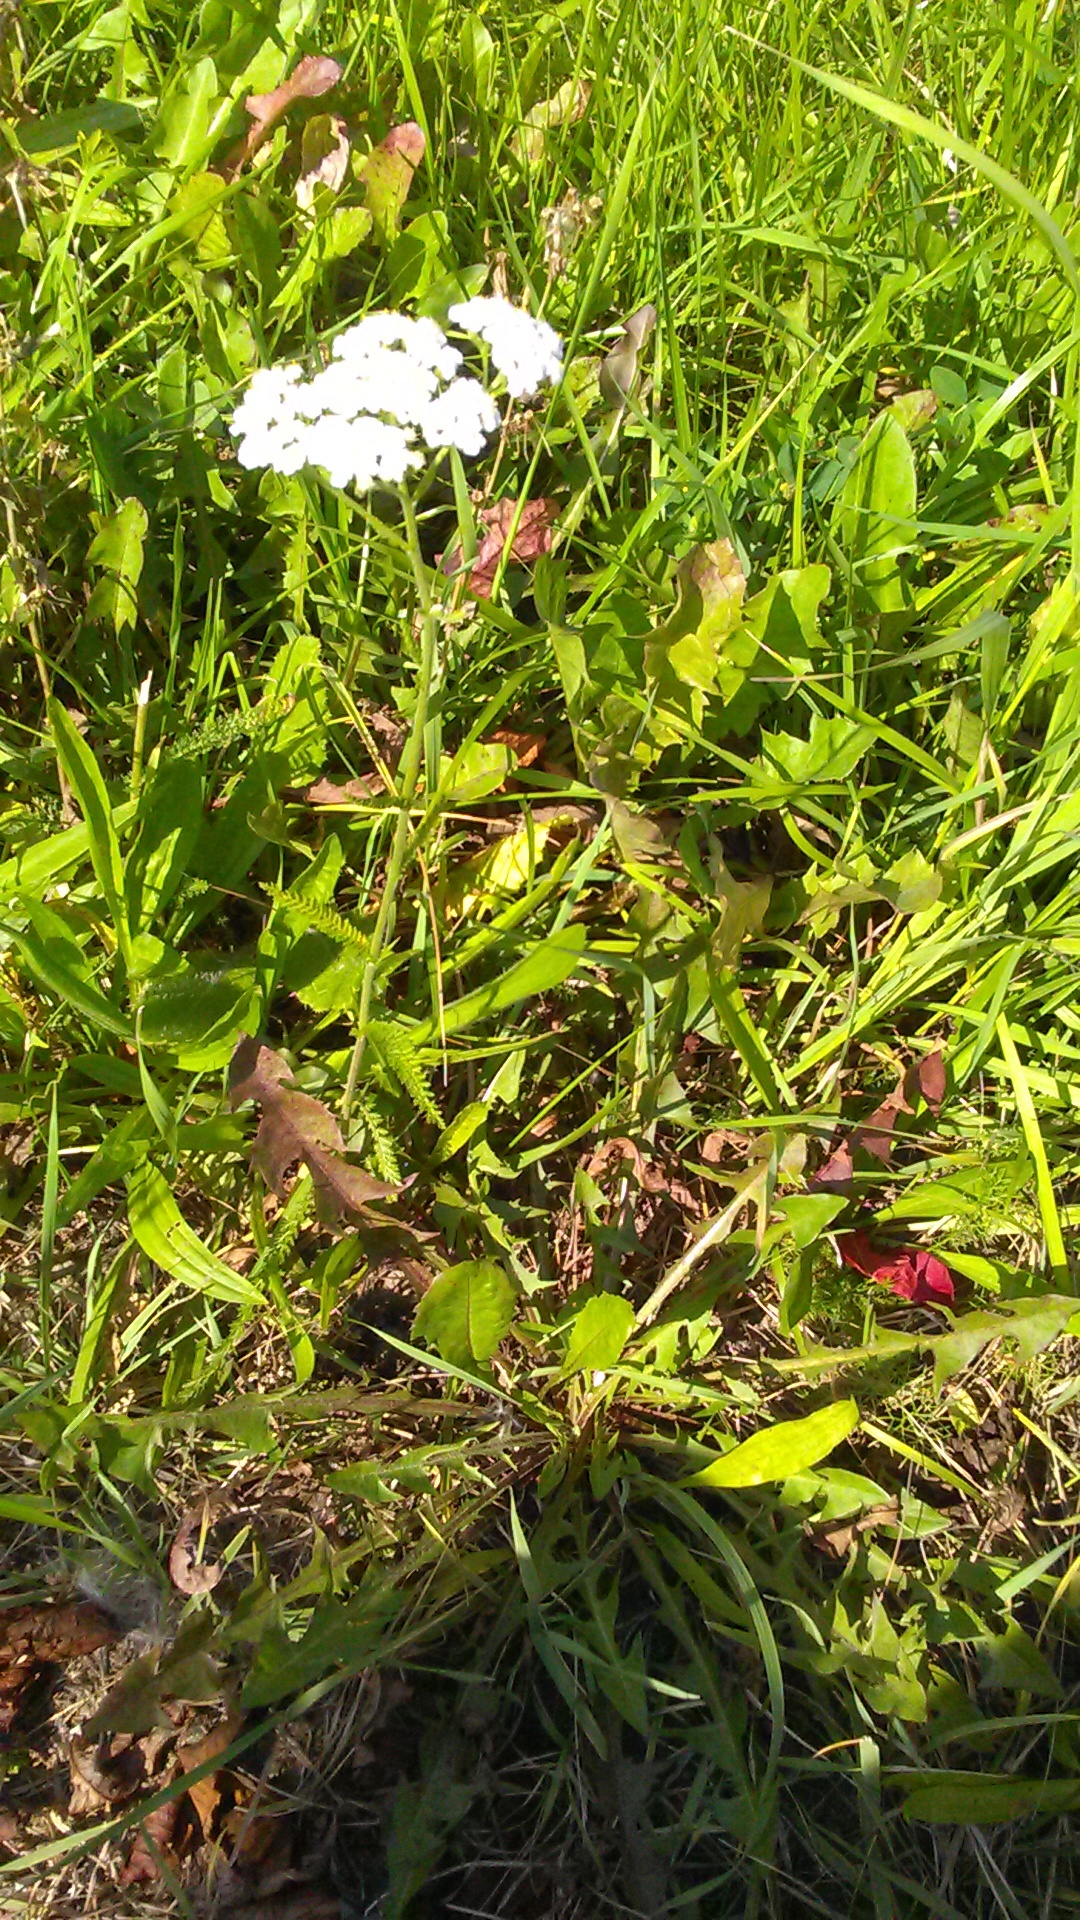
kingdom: Plantae
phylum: Tracheophyta
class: Magnoliopsida
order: Asterales
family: Asteraceae
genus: Achillea
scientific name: Achillea millefolium
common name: Yarrow
